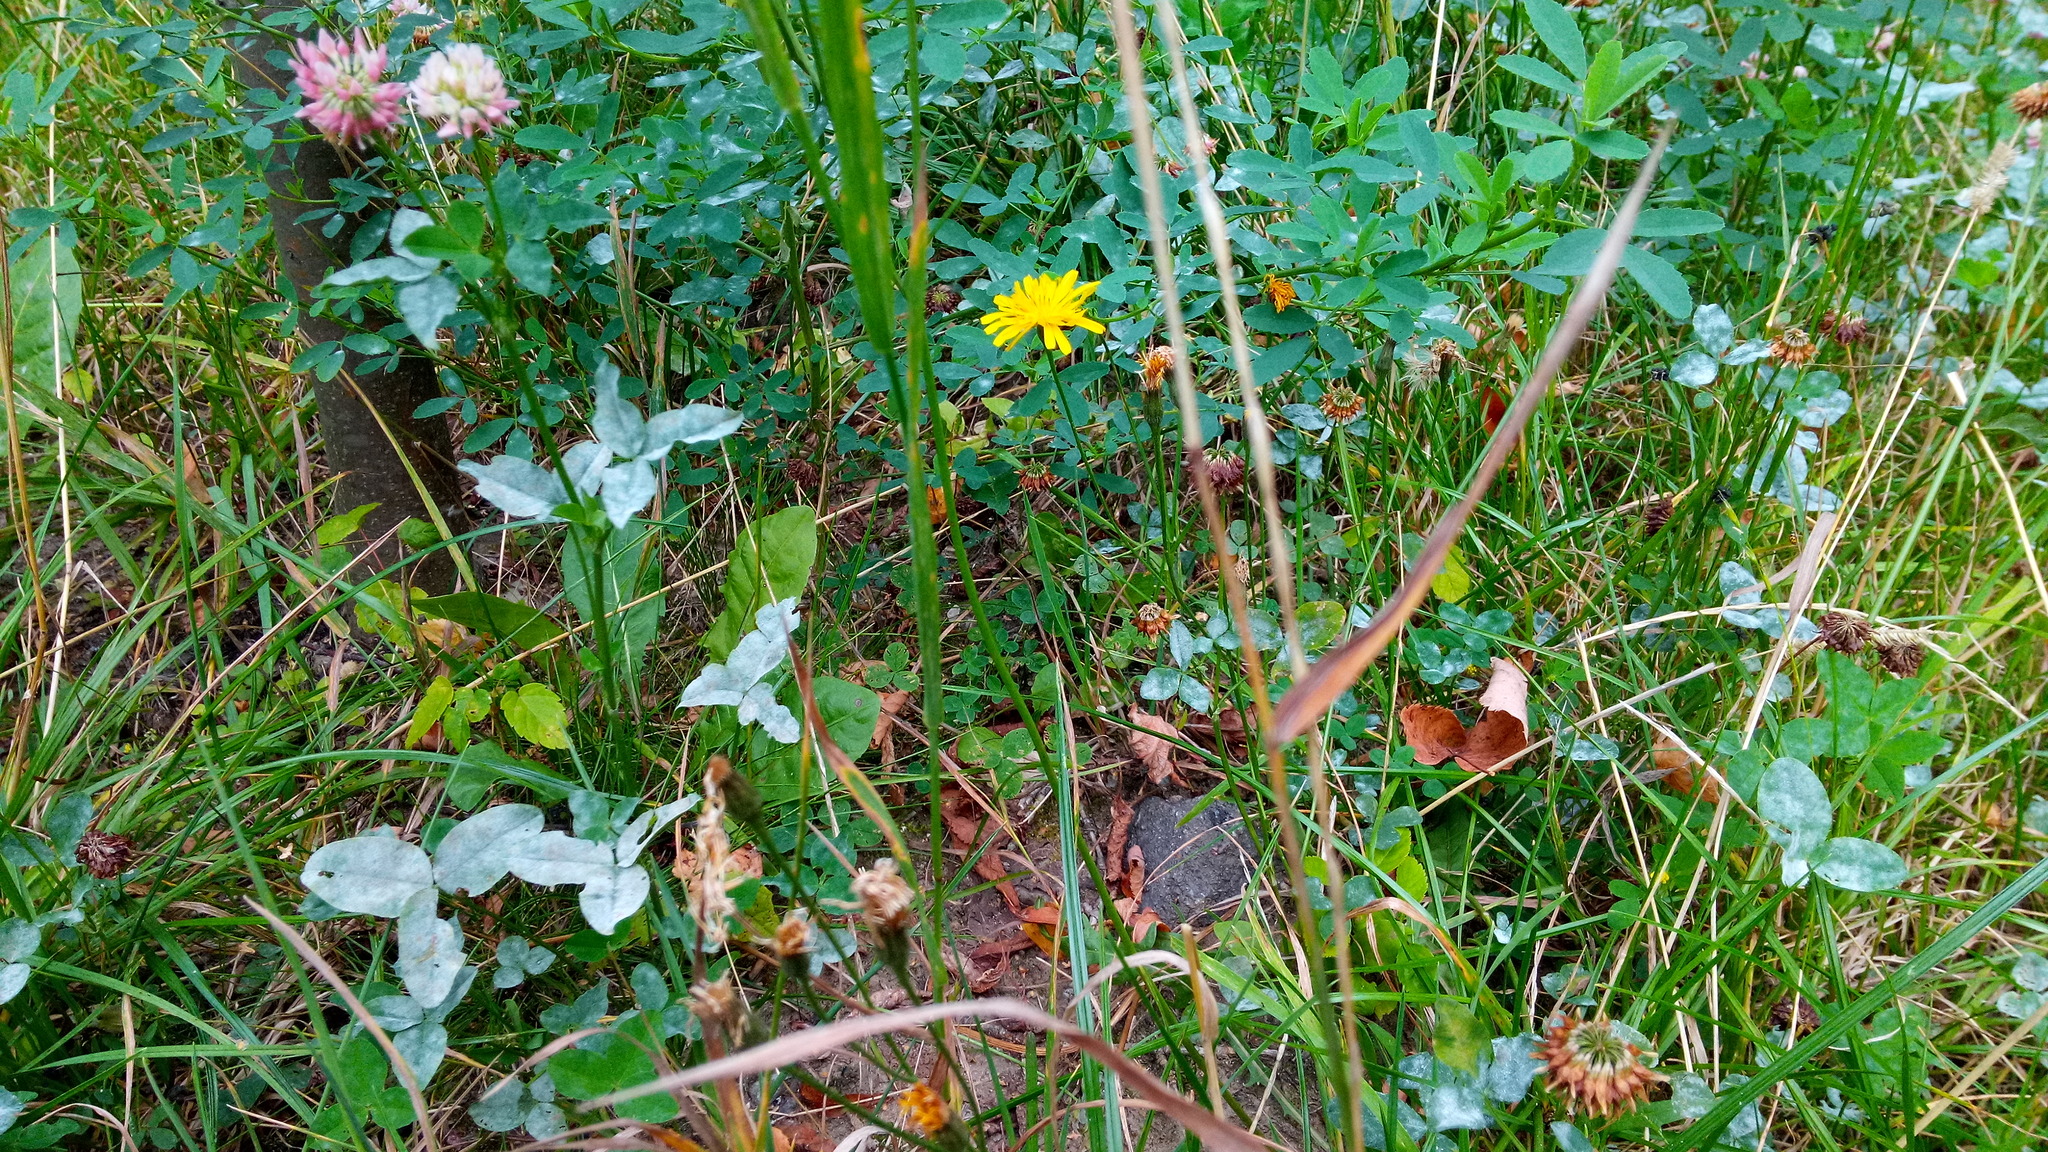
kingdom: Plantae
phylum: Tracheophyta
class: Magnoliopsida
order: Asterales
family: Asteraceae
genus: Scorzoneroides
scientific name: Scorzoneroides autumnalis
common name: Autumn hawkbit
